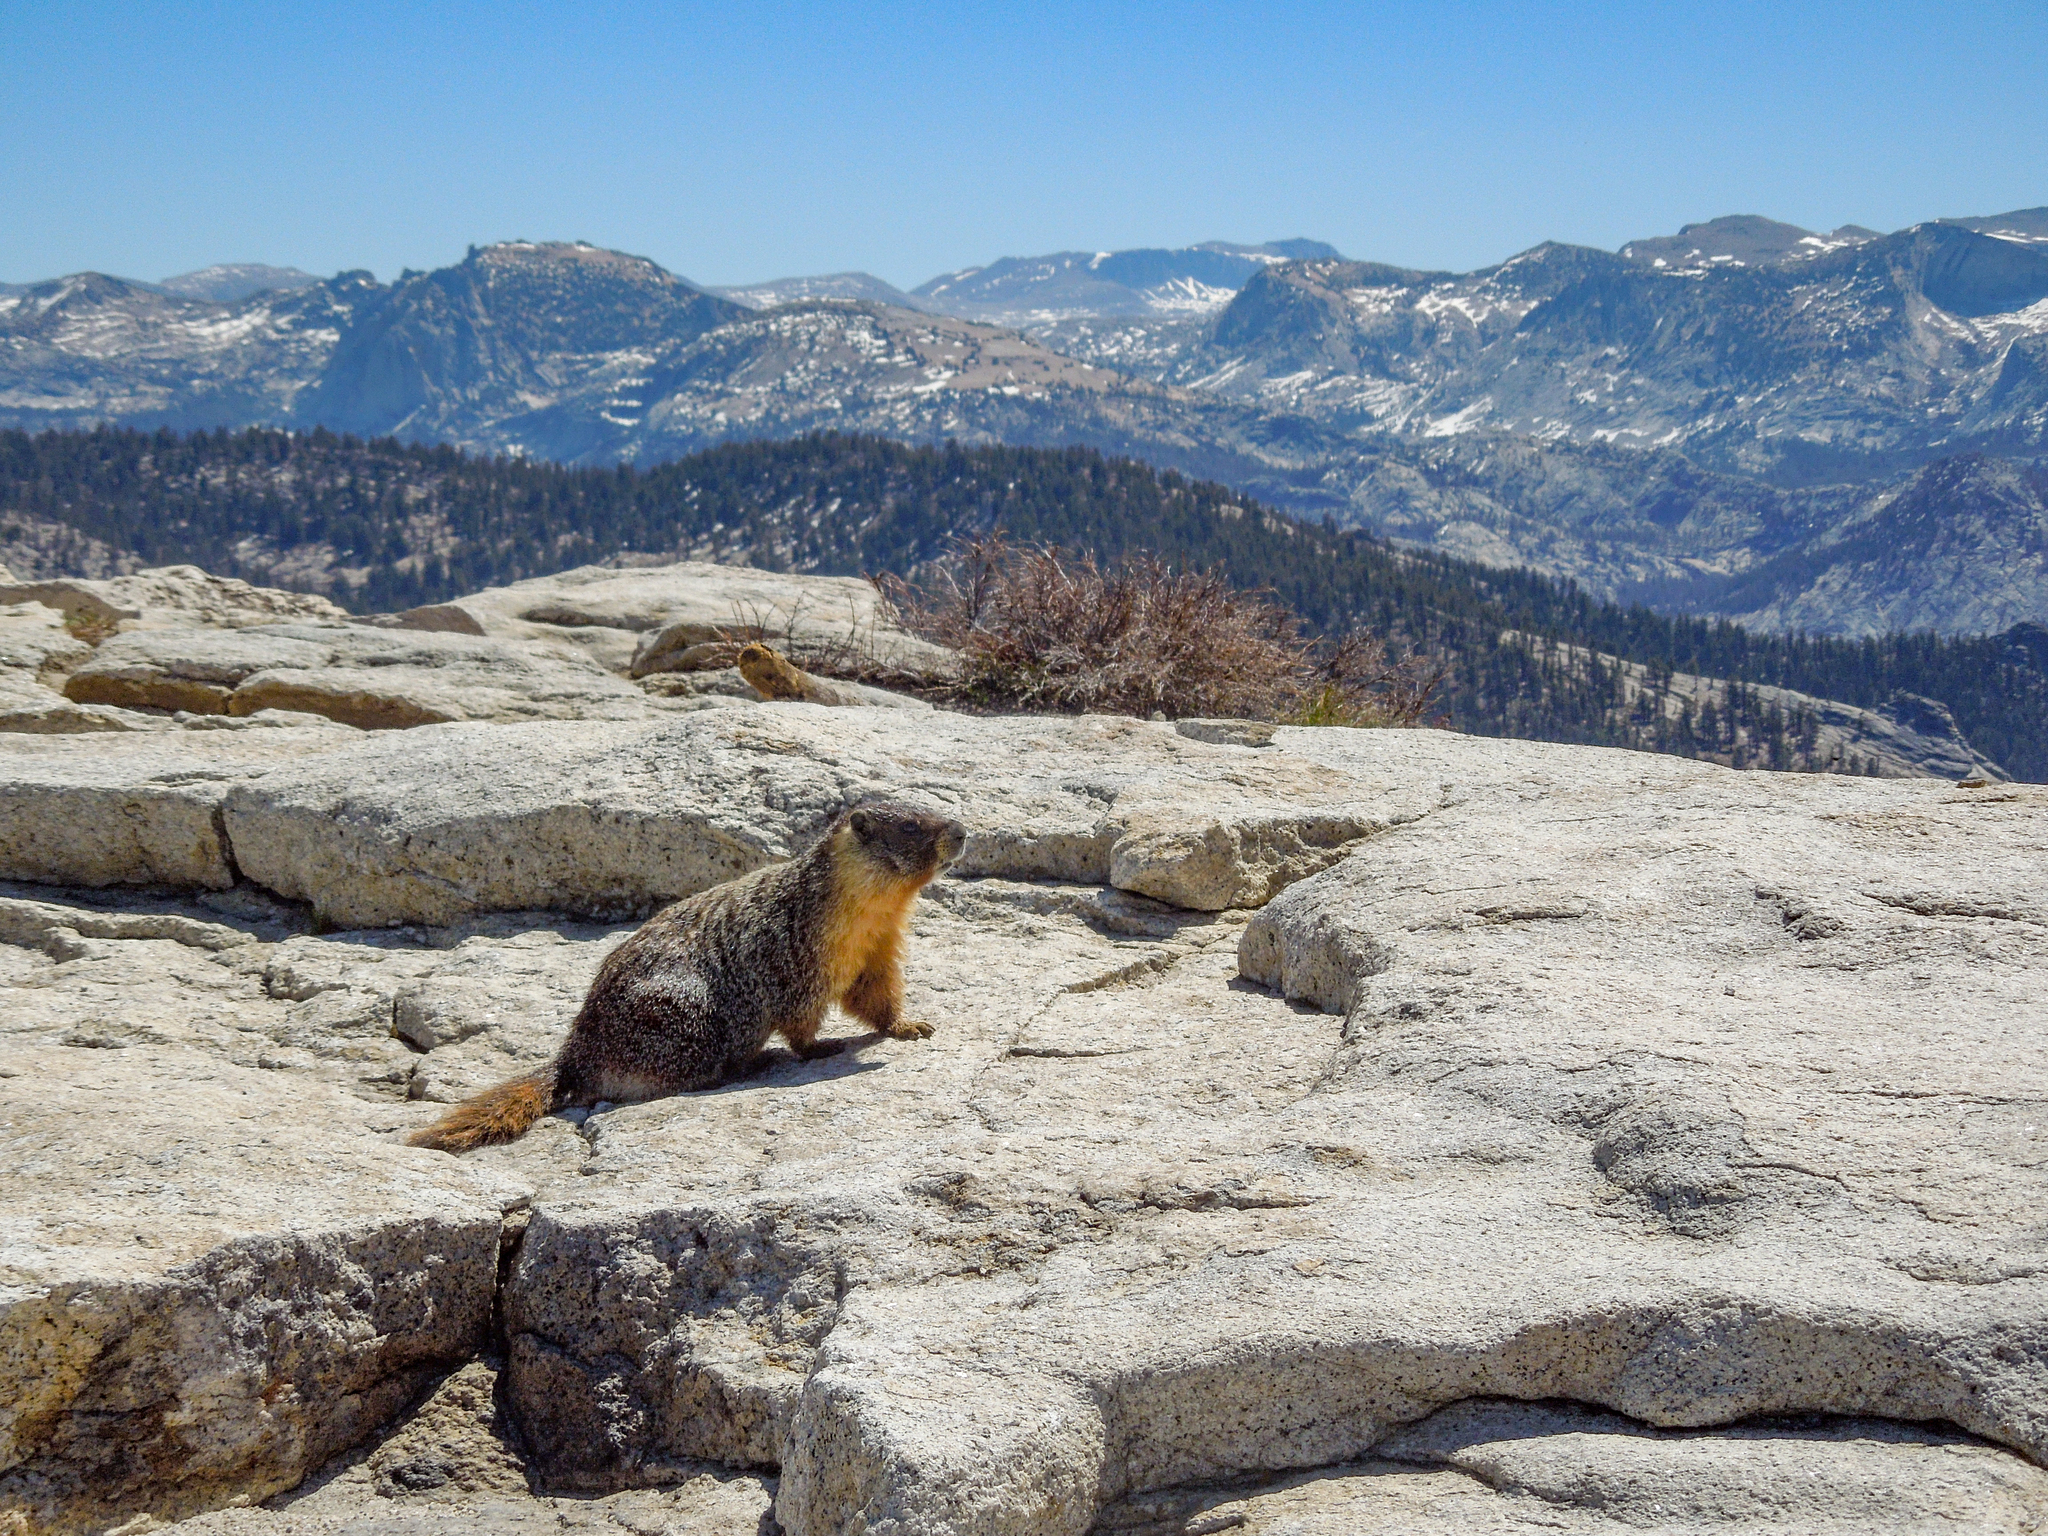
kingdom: Animalia
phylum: Chordata
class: Mammalia
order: Rodentia
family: Sciuridae
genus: Marmota
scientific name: Marmota flaviventris
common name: Yellow-bellied marmot
